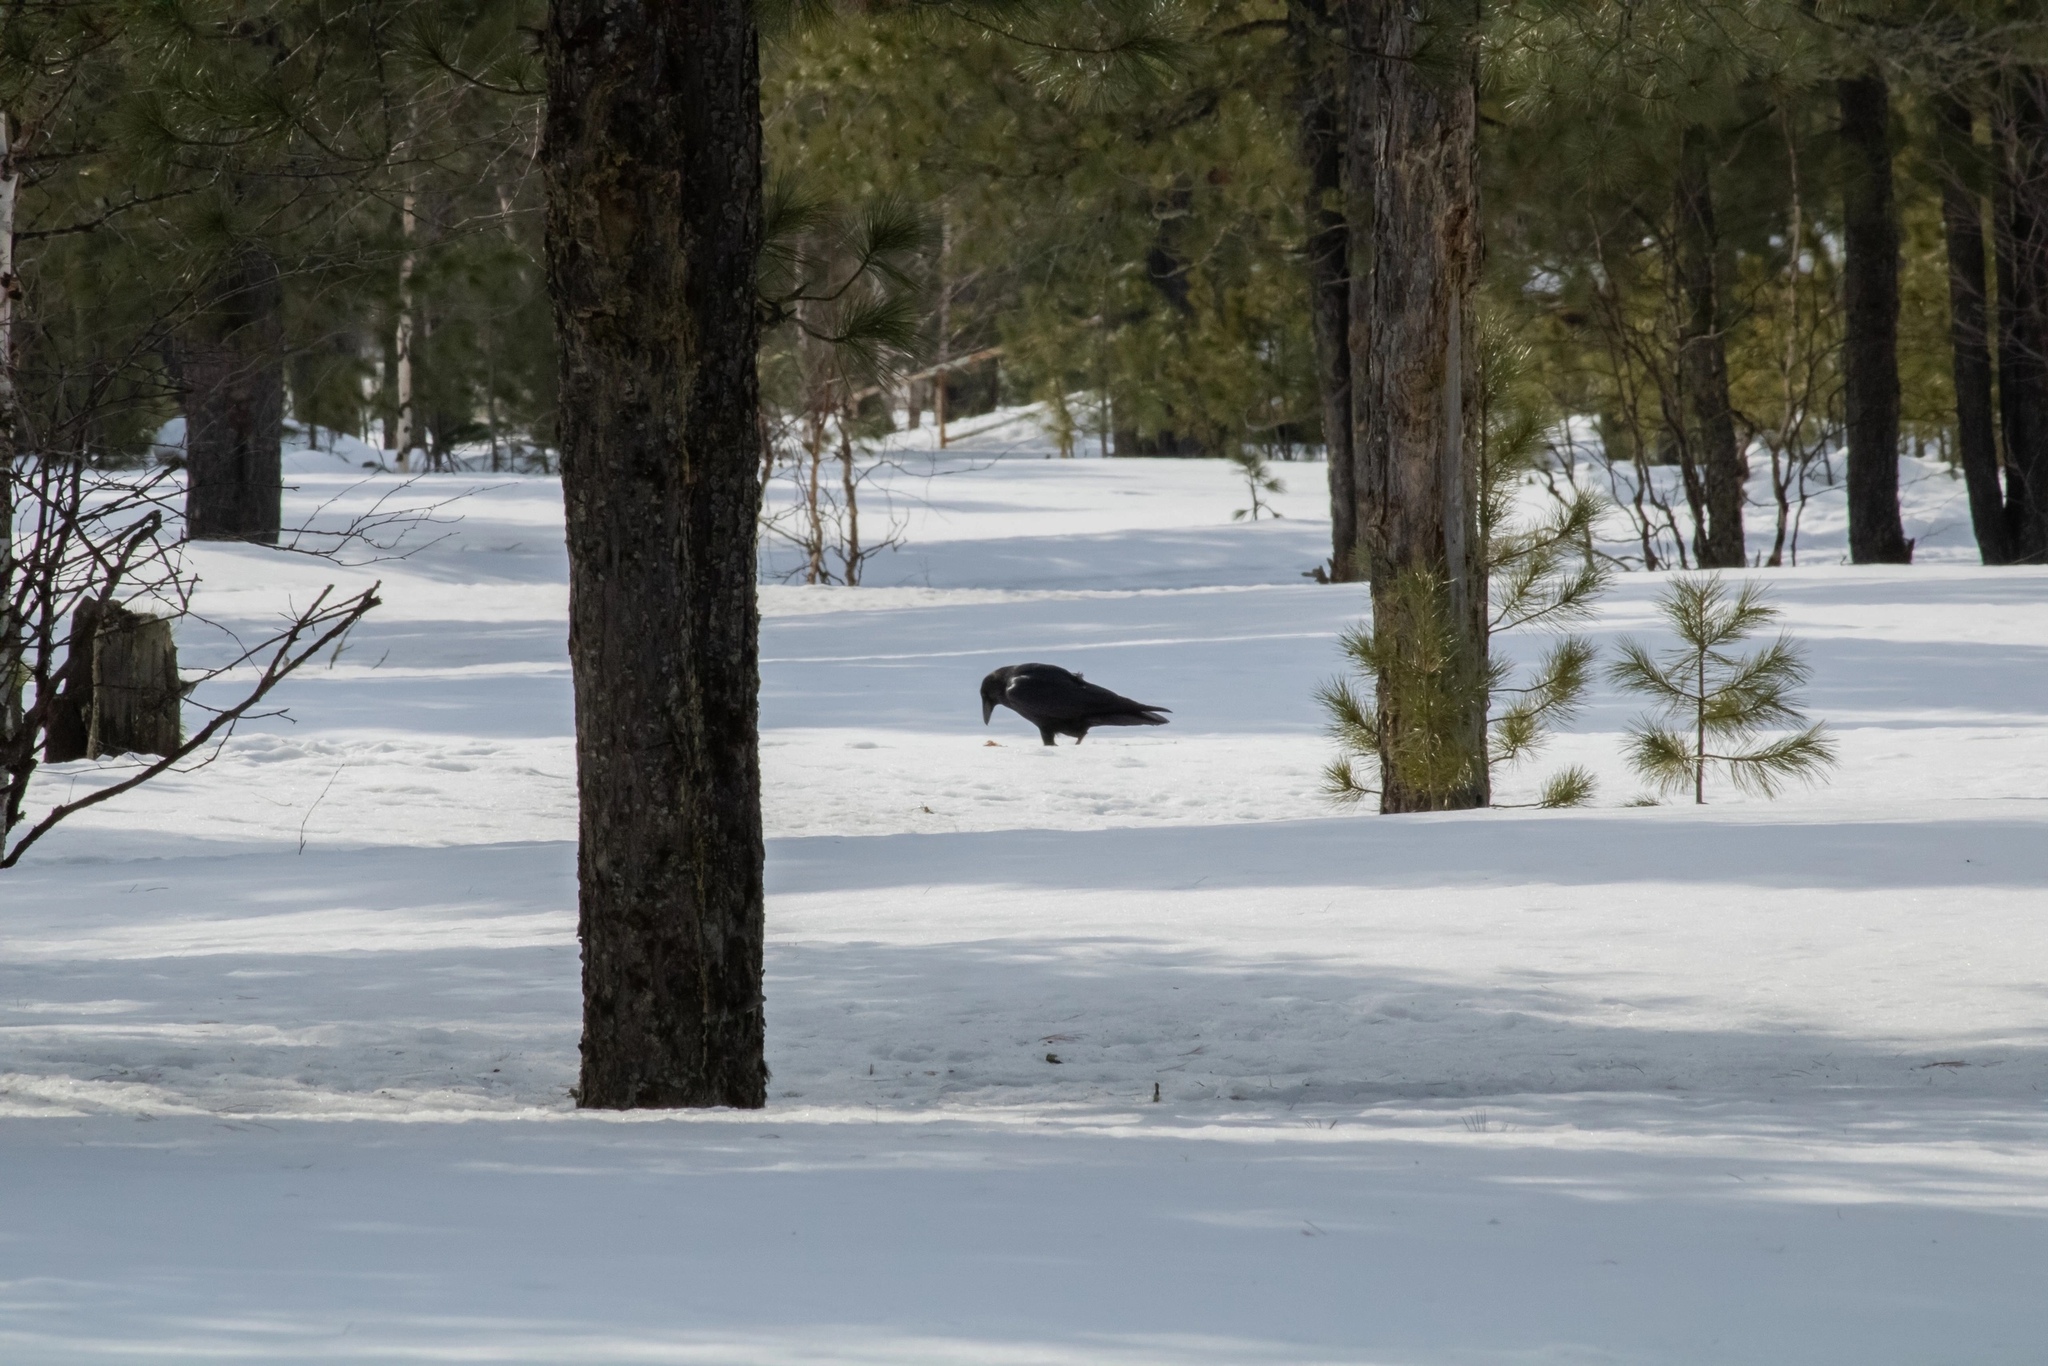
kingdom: Animalia
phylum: Chordata
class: Aves
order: Passeriformes
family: Corvidae
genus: Corvus
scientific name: Corvus corax
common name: Common raven
